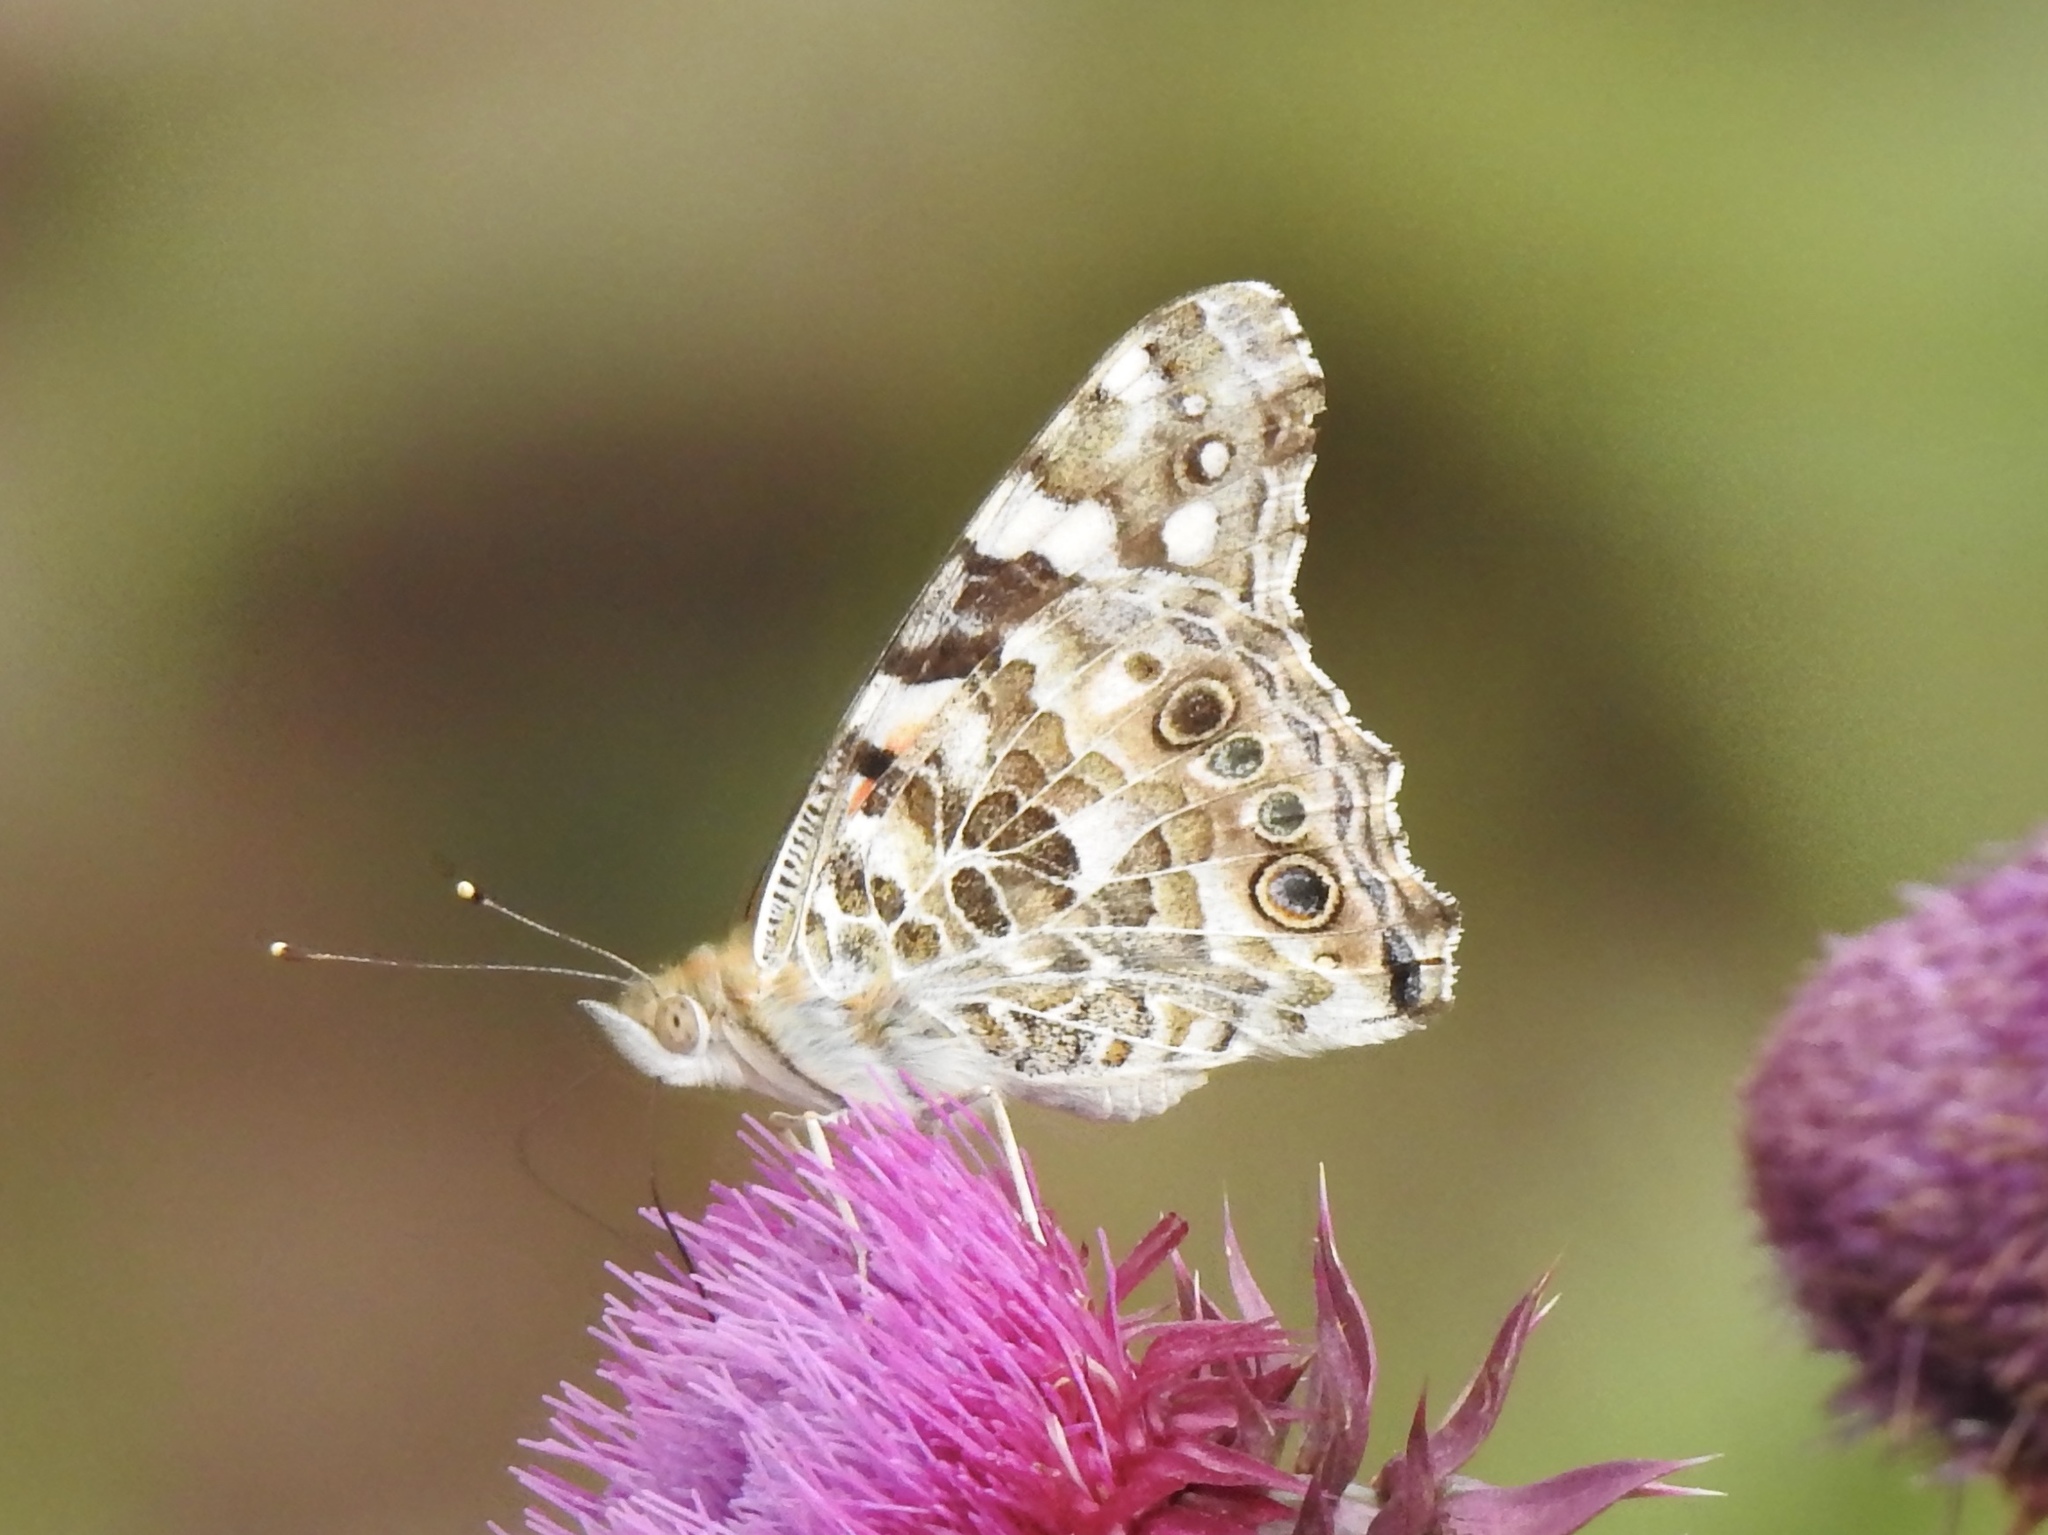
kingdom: Animalia
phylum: Arthropoda
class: Insecta
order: Lepidoptera
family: Nymphalidae
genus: Vanessa
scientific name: Vanessa cardui
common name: Painted lady
